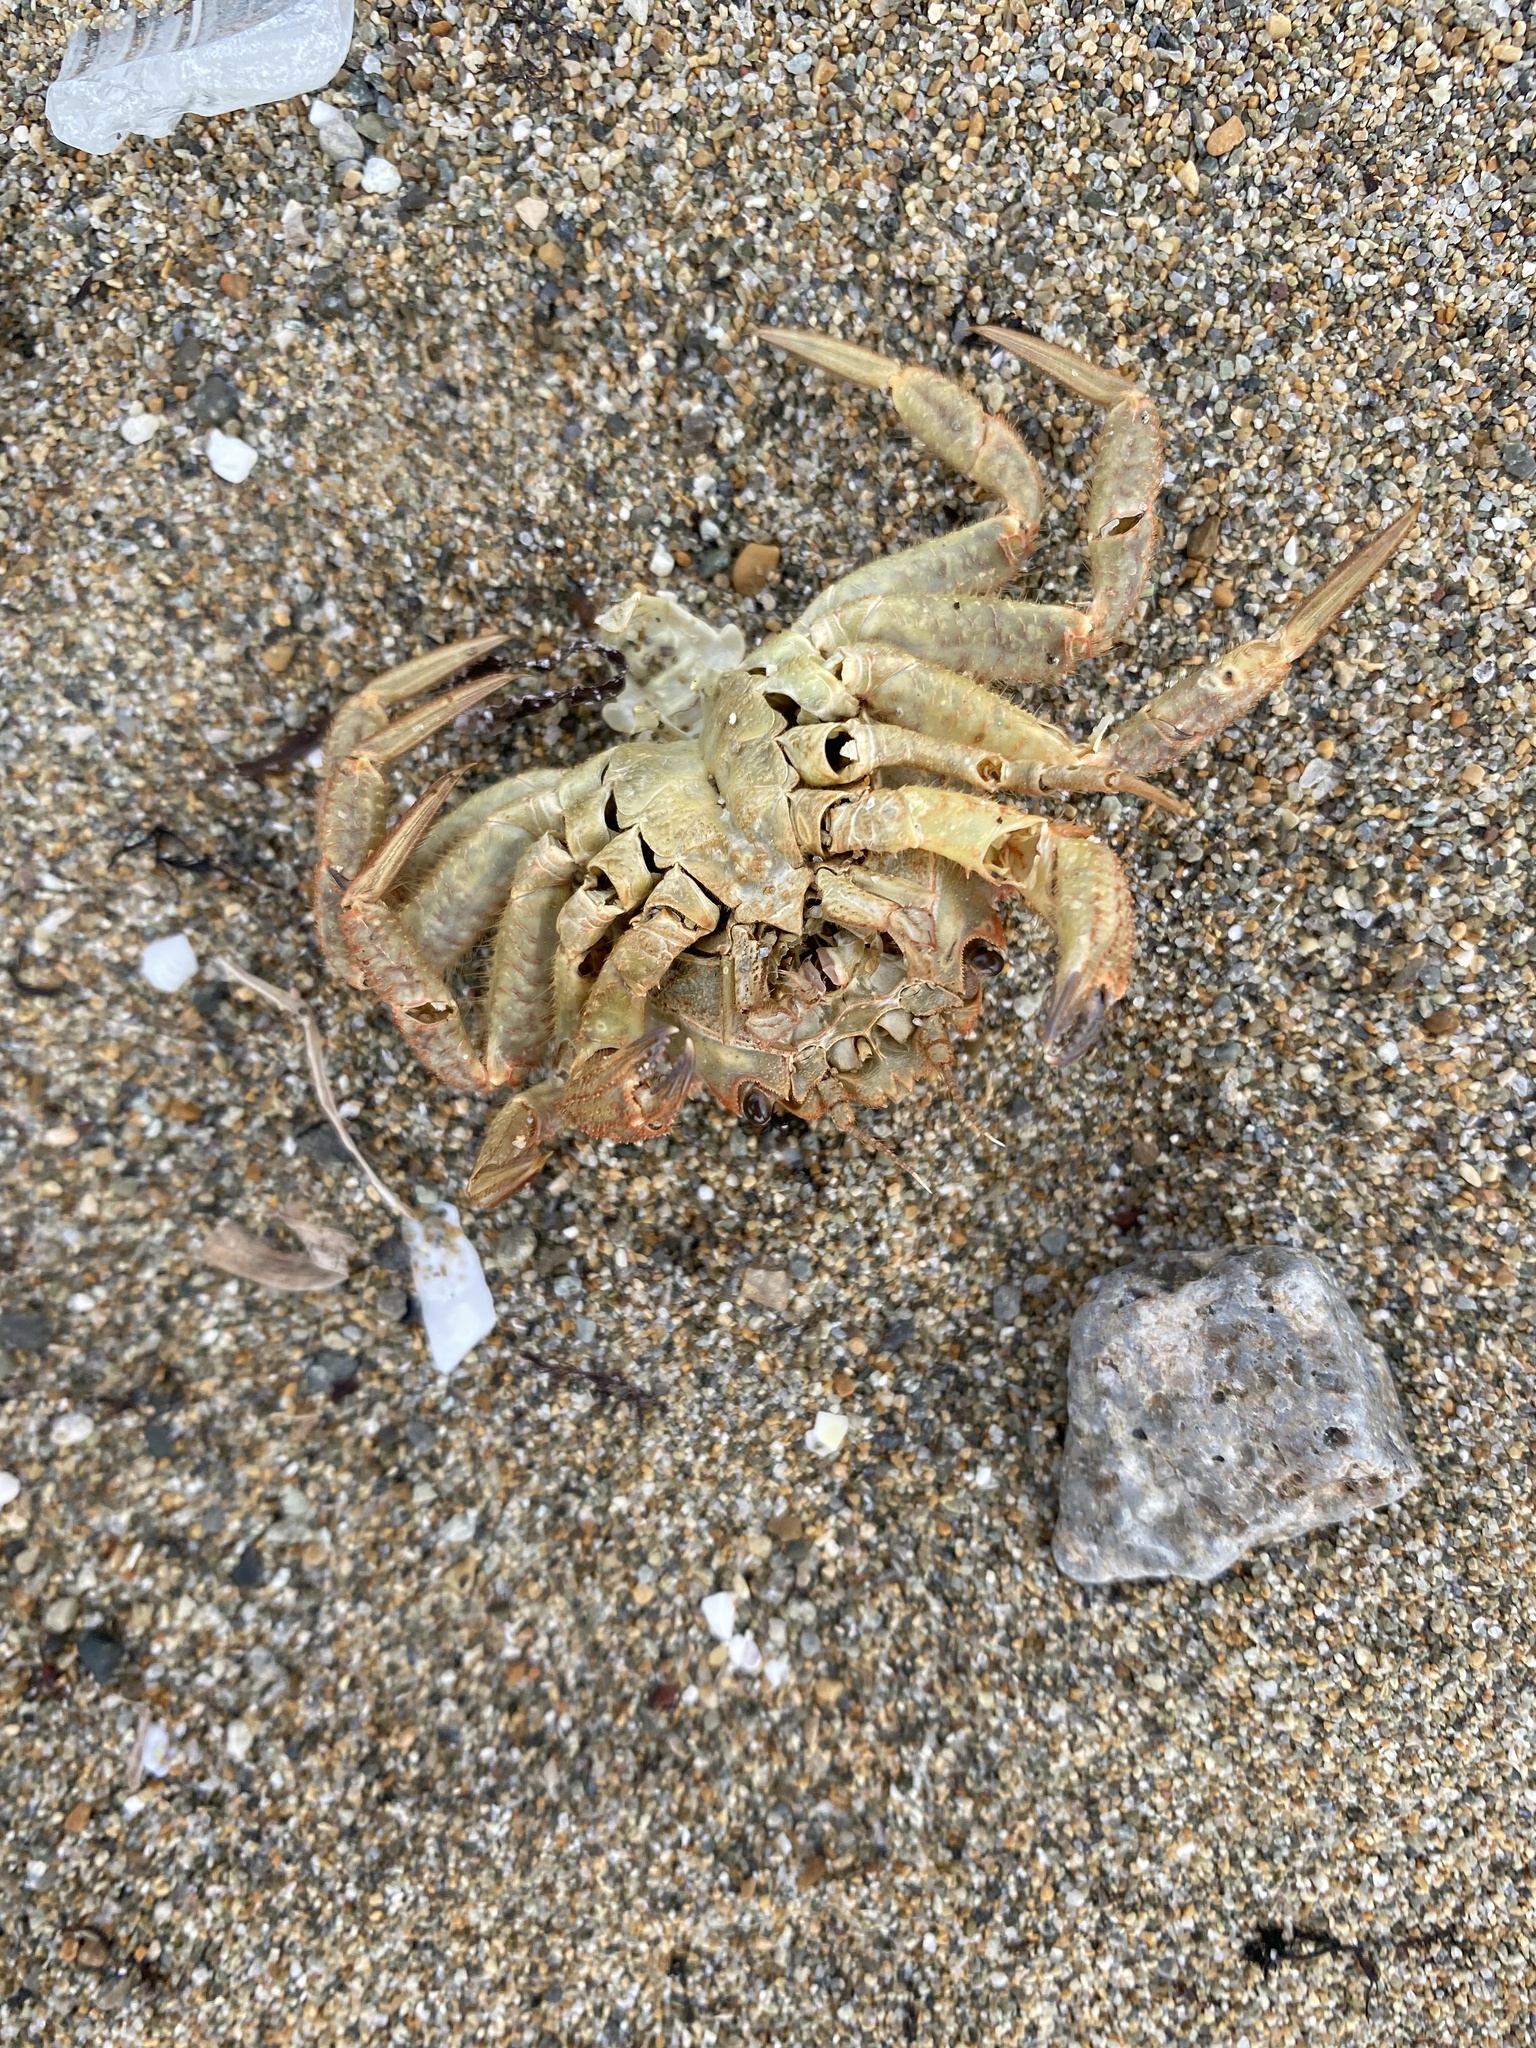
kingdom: Animalia
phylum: Arthropoda
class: Malacostraca
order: Decapoda
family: Cheiragonidae
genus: Telmessus
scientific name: Telmessus cheiragonus
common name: Helmet crab
